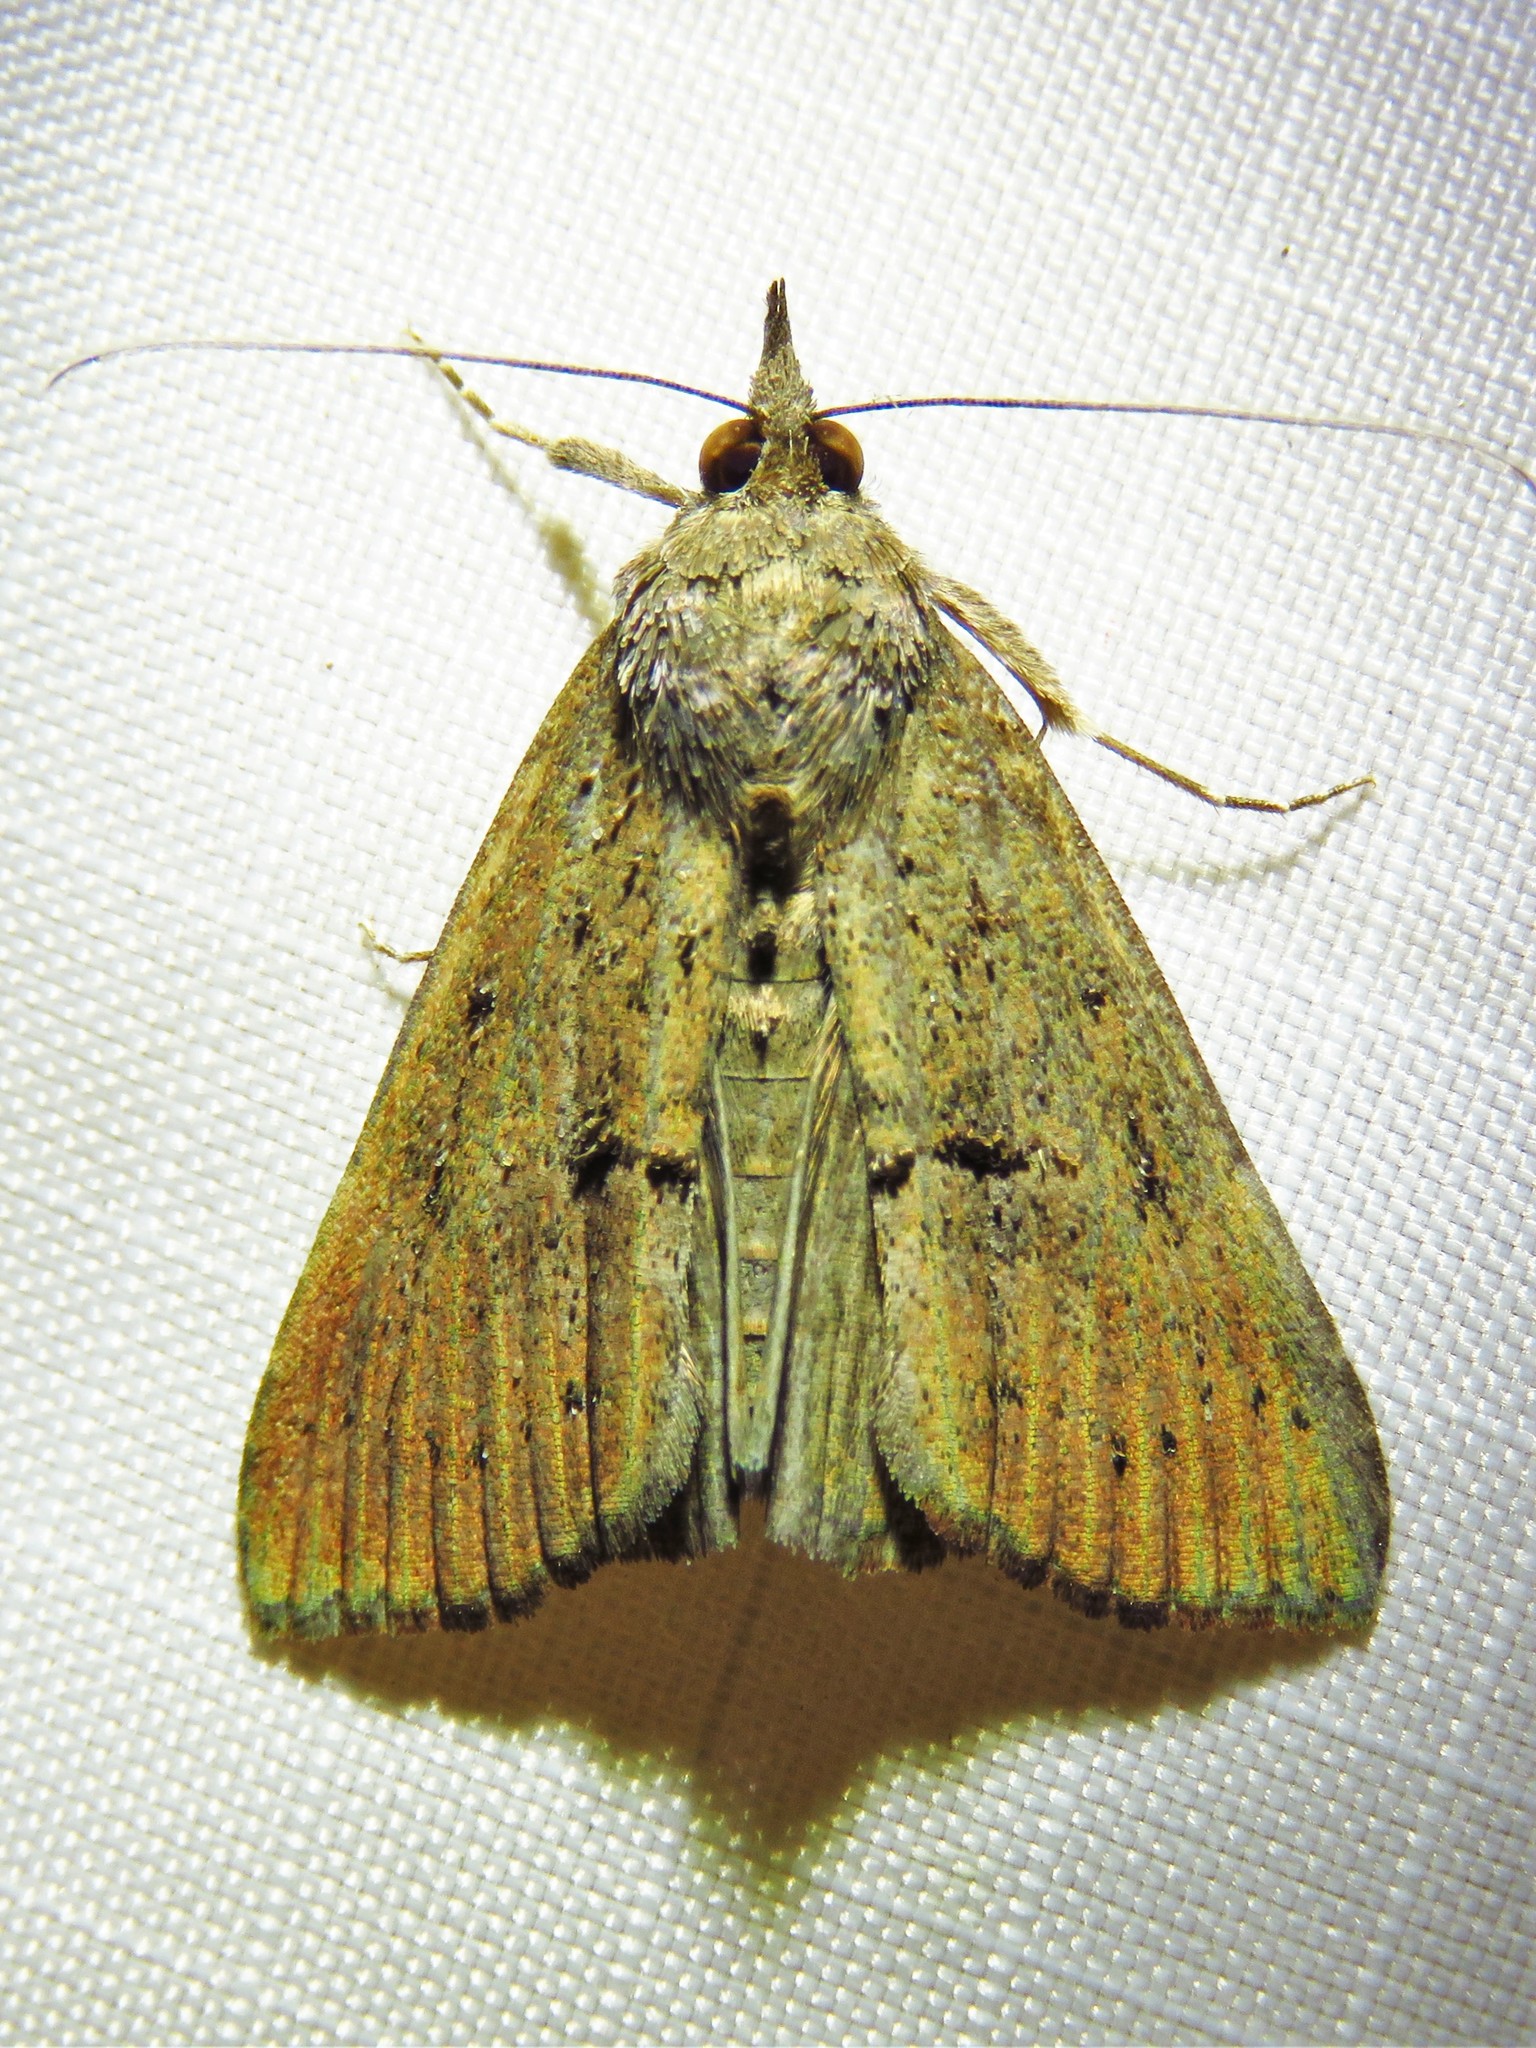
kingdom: Animalia
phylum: Arthropoda
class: Insecta
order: Lepidoptera
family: Erebidae
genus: Hypena
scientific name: Hypena scabra
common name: Green cloverworm
